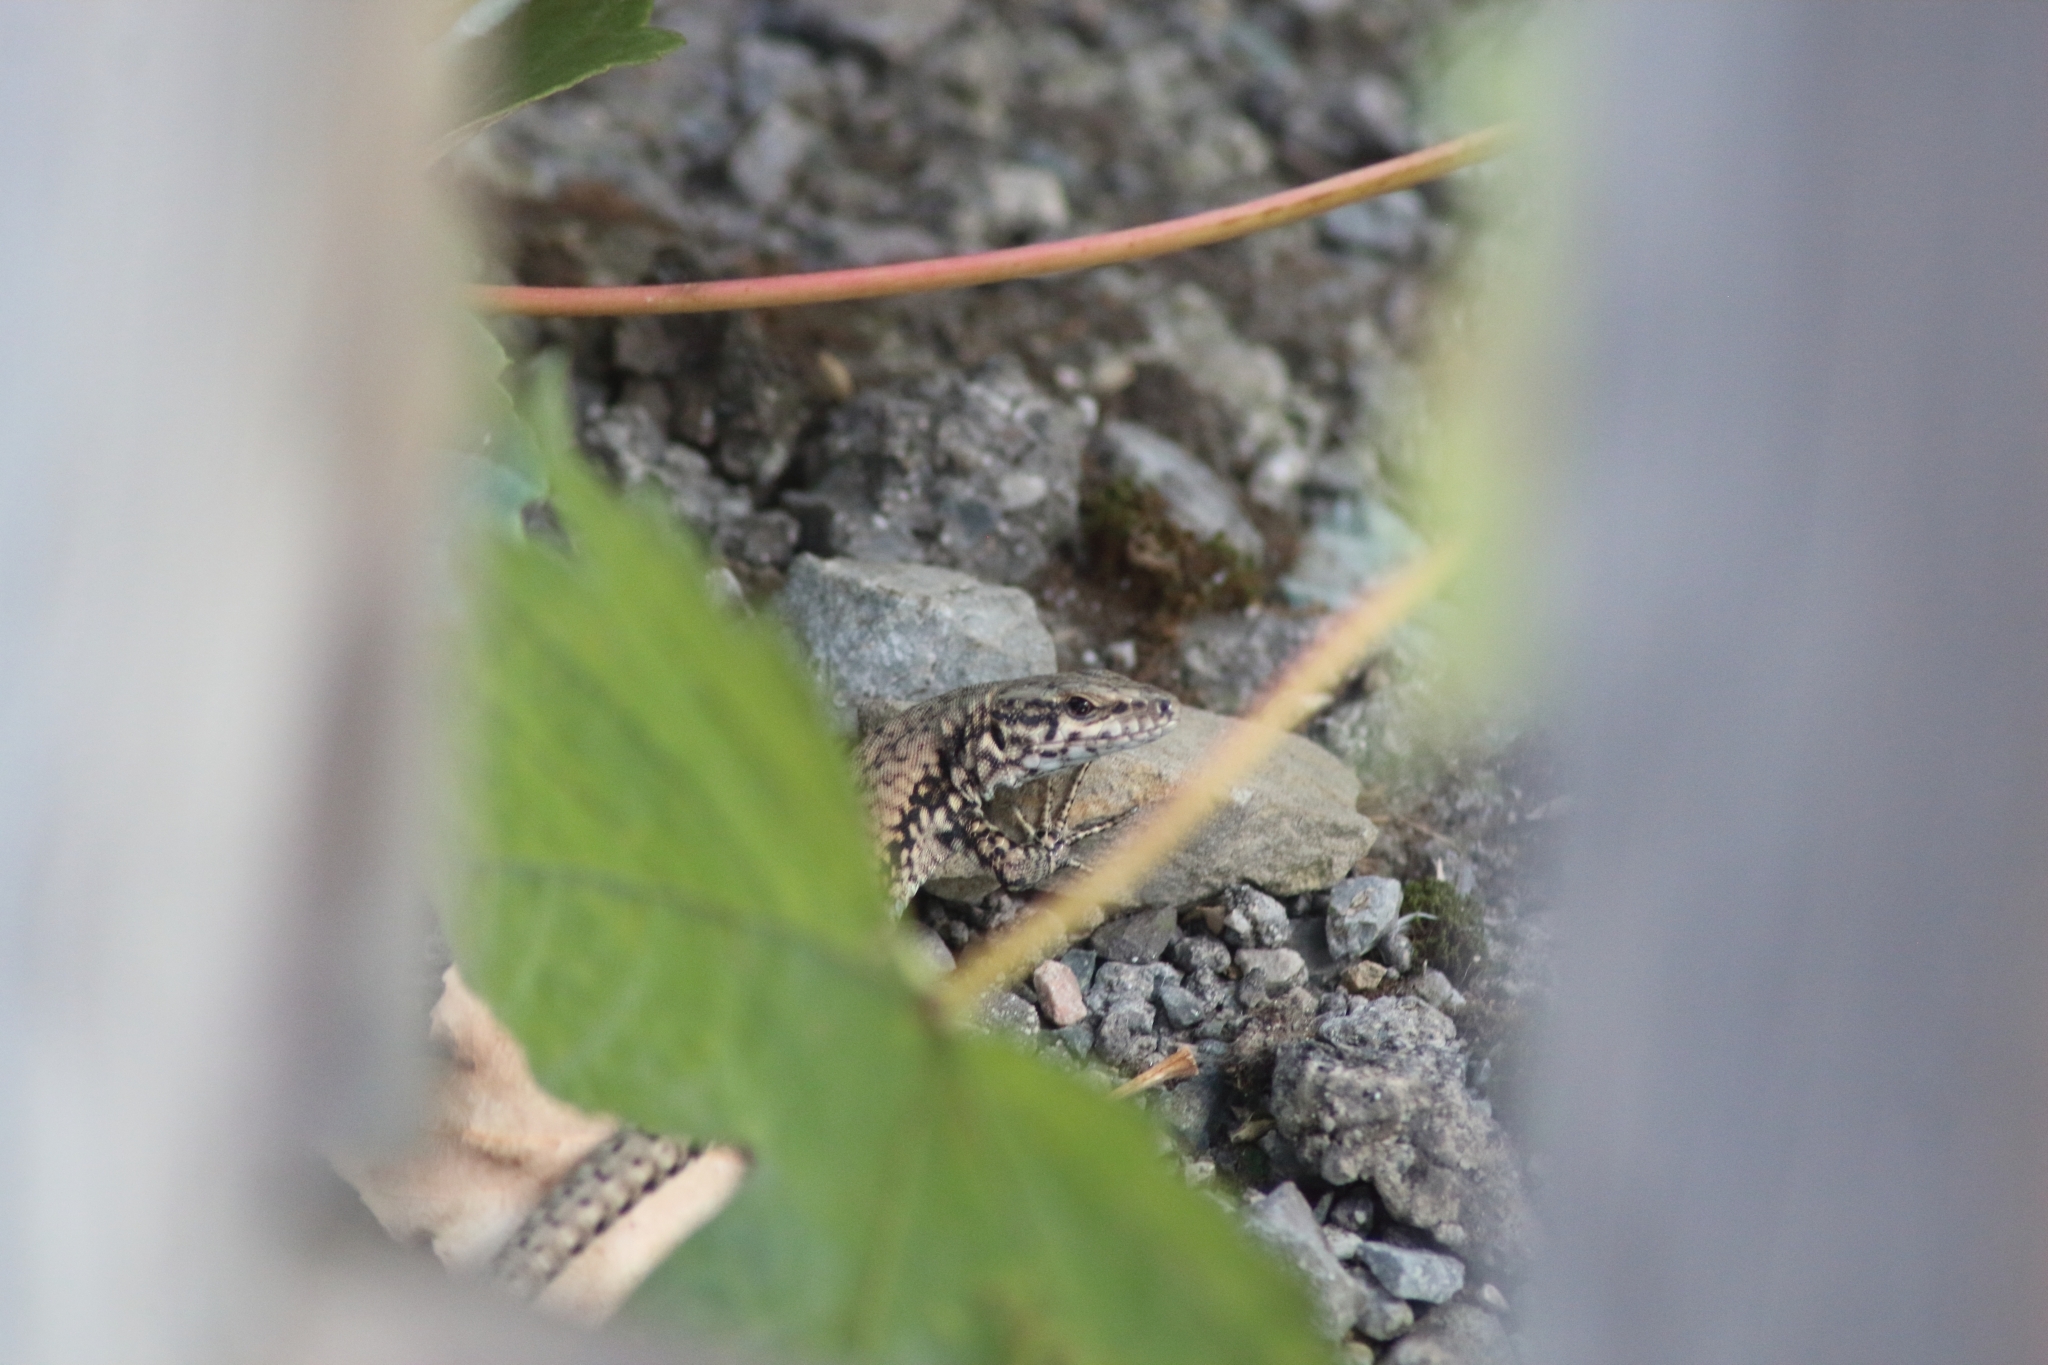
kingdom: Animalia
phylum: Chordata
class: Squamata
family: Lacertidae
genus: Podarcis
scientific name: Podarcis muralis
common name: Common wall lizard
